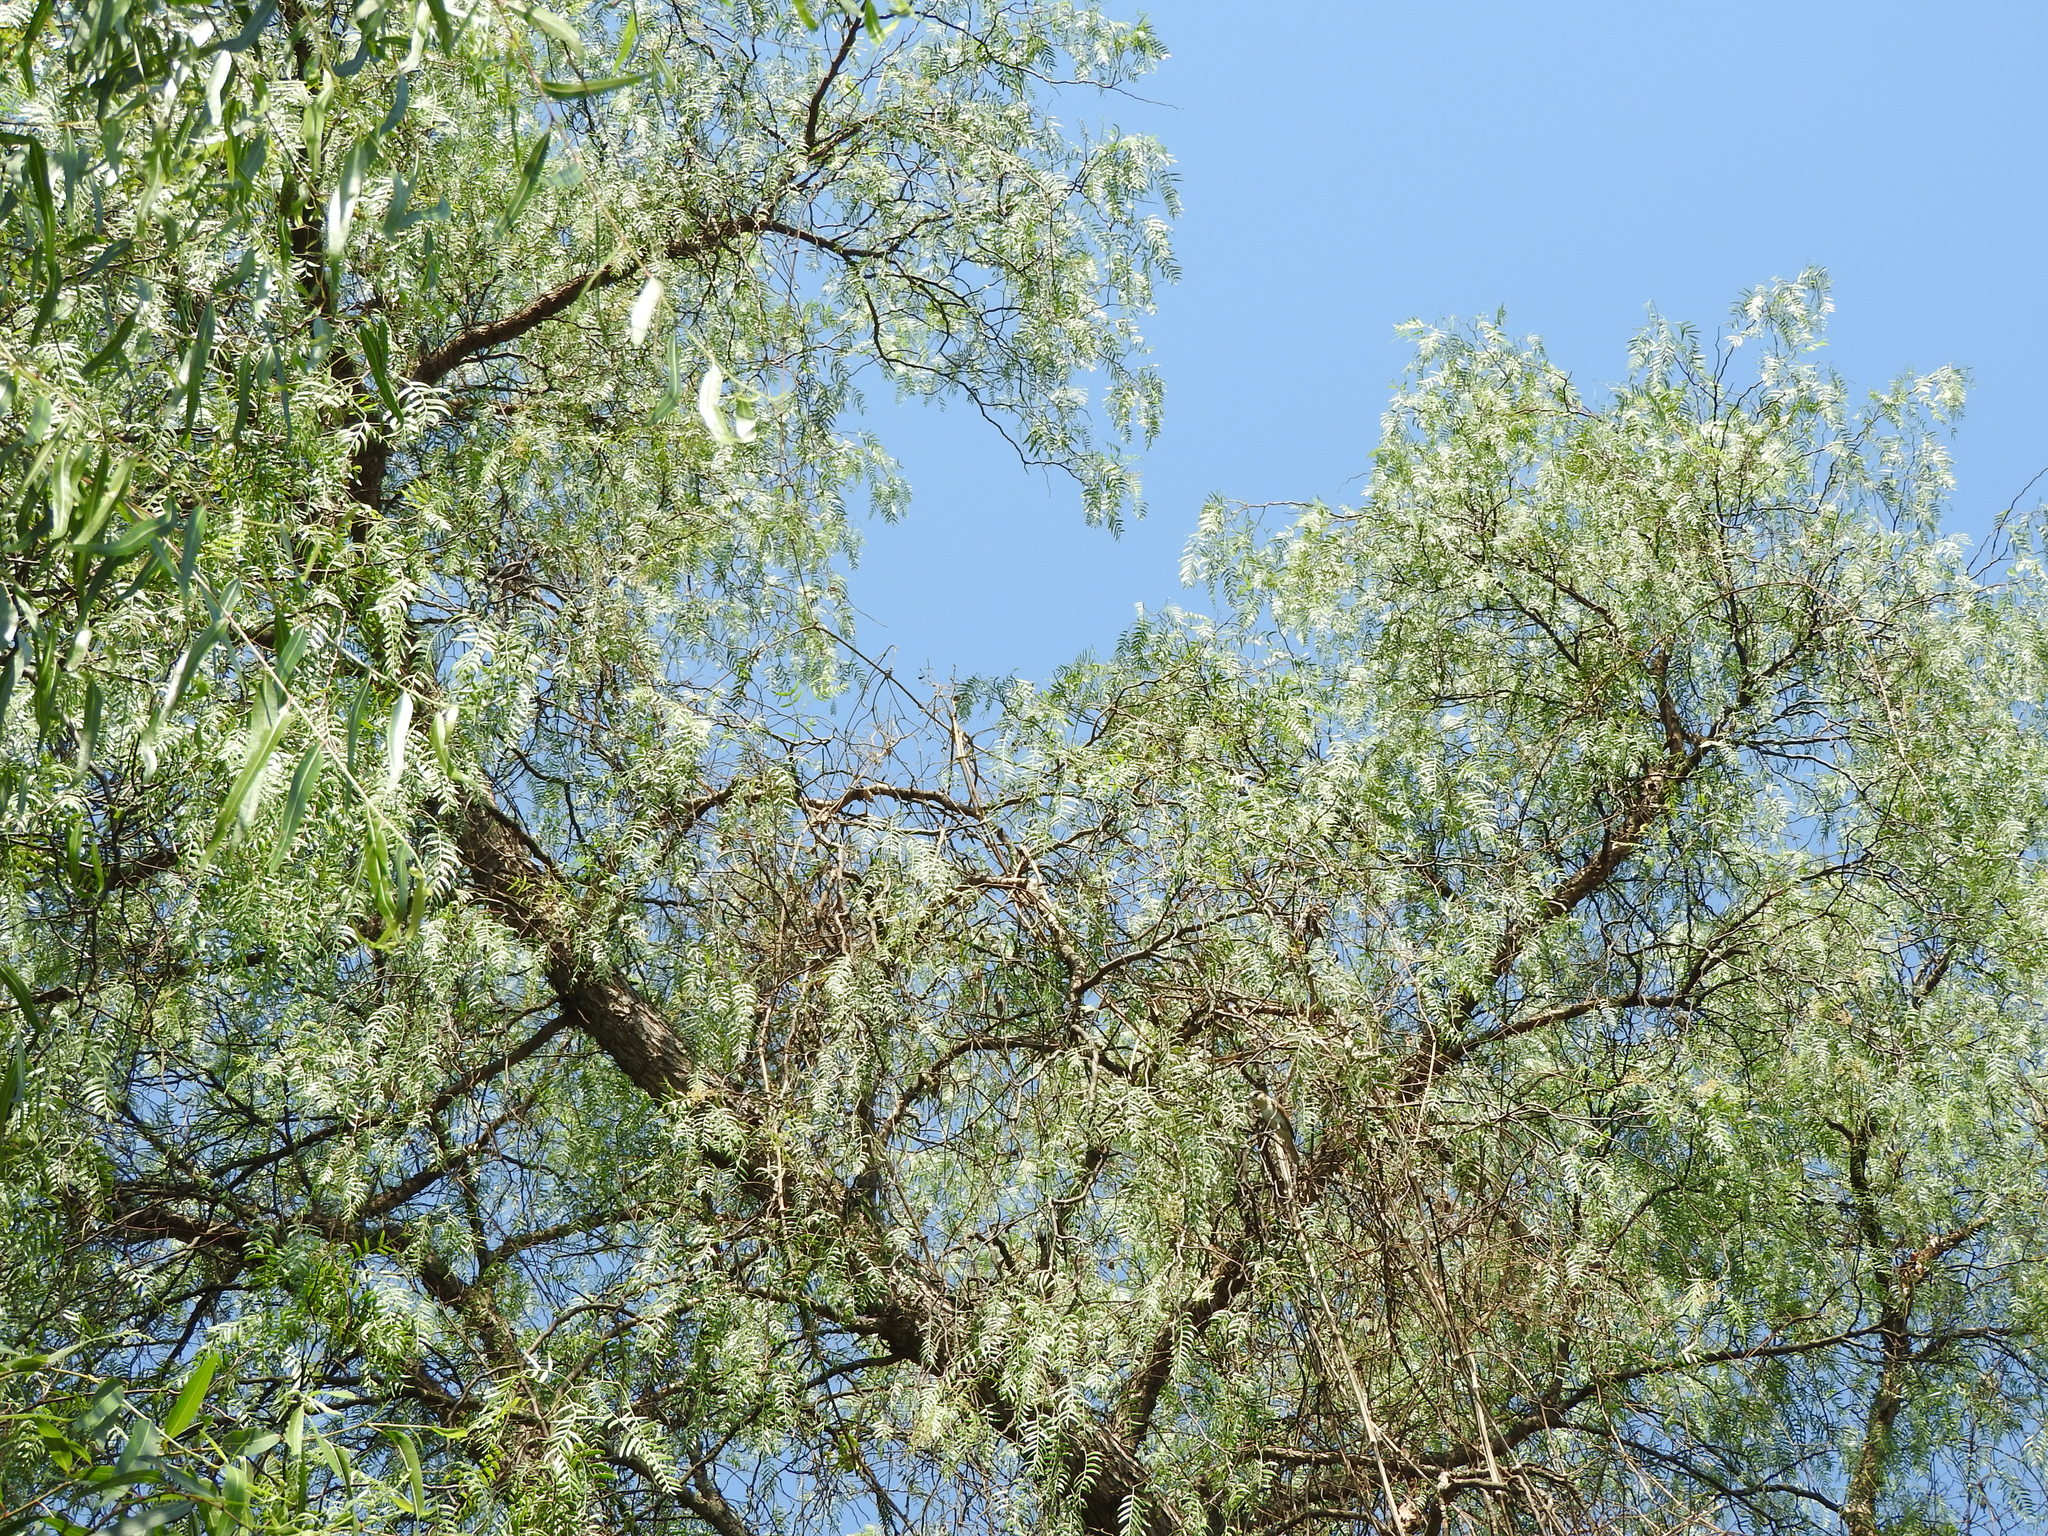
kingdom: Plantae
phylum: Tracheophyta
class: Magnoliopsida
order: Sapindales
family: Anacardiaceae
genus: Schinus
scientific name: Schinus molle
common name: Peruvian peppertree
